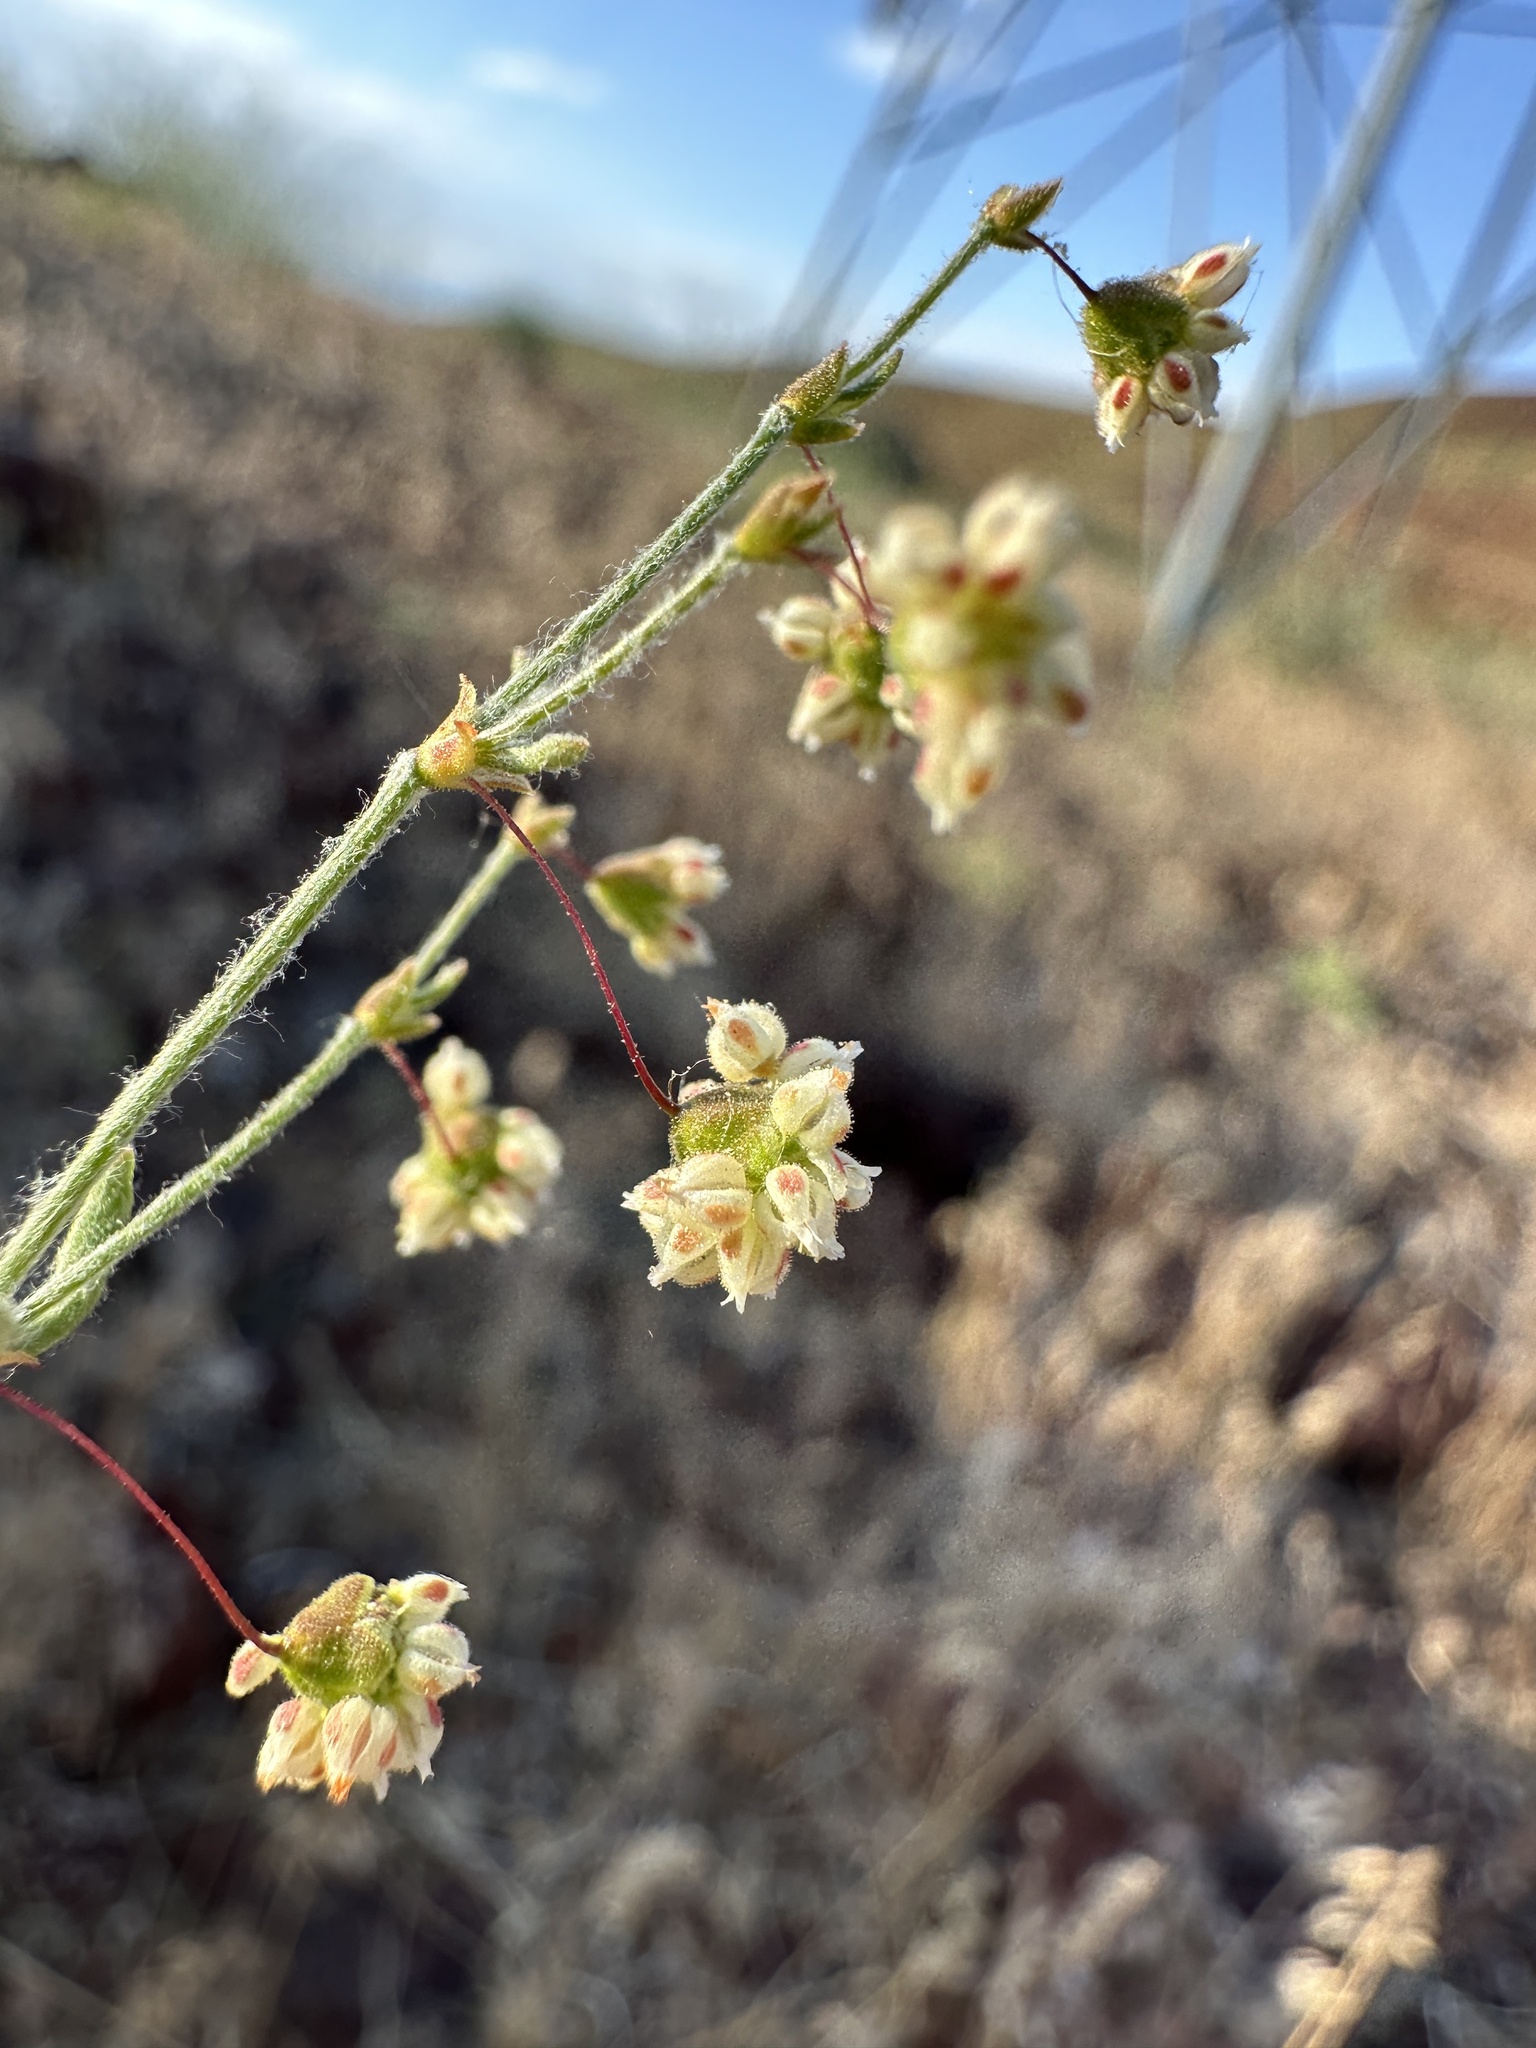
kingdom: Plantae
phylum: Tracheophyta
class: Magnoliopsida
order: Caryophyllales
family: Polygonaceae
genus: Eriogonum
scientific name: Eriogonum maculatum
